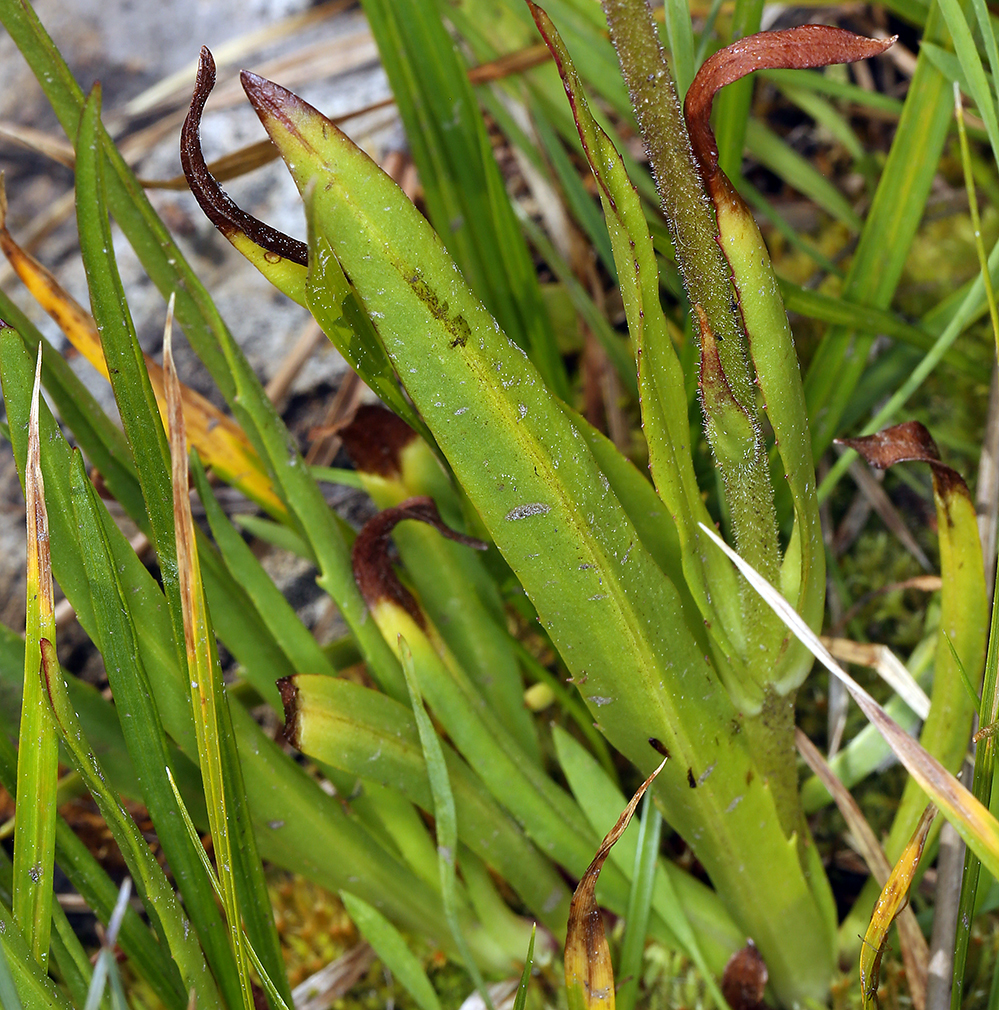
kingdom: Plantae
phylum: Tracheophyta
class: Magnoliopsida
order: Asterales
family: Asteraceae
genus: Raillardella
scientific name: Raillardella pringlei
